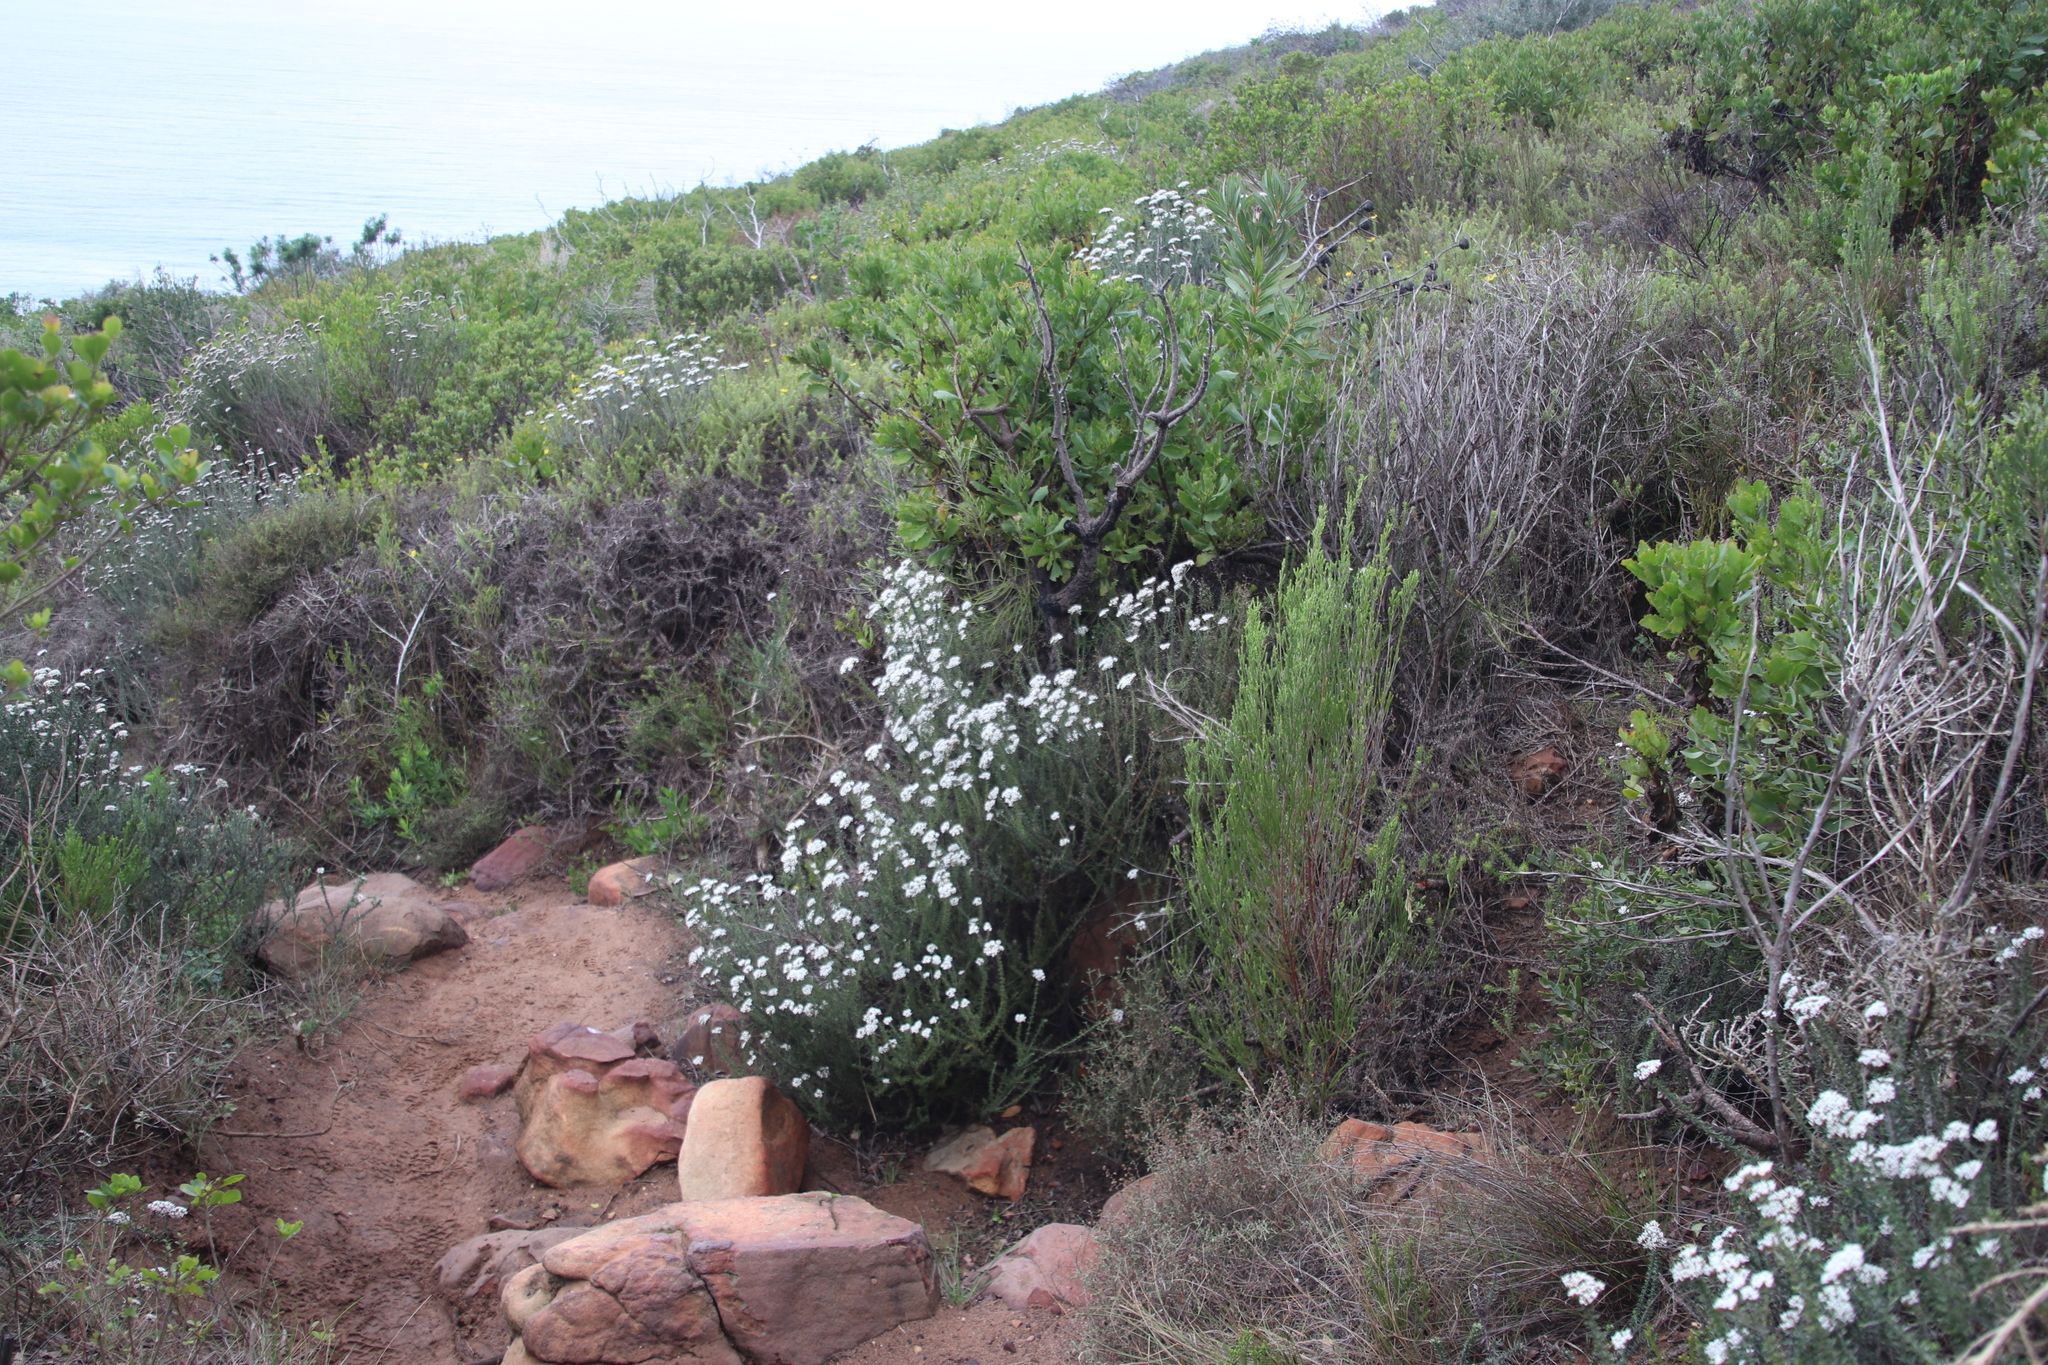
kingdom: Plantae
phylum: Tracheophyta
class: Magnoliopsida
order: Asterales
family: Asteraceae
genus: Metalasia
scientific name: Metalasia densa
